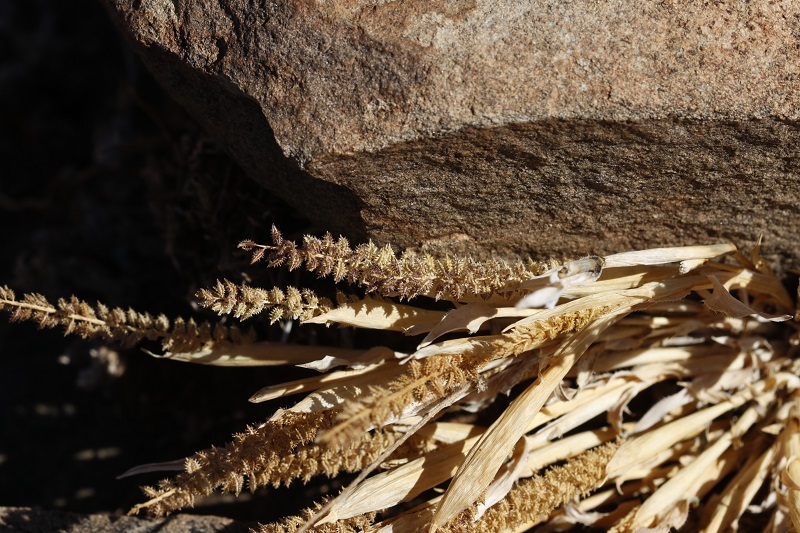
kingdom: Plantae
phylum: Tracheophyta
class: Liliopsida
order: Poales
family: Poaceae
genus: Tragus
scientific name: Tragus berteronianus
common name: African bur-grass
